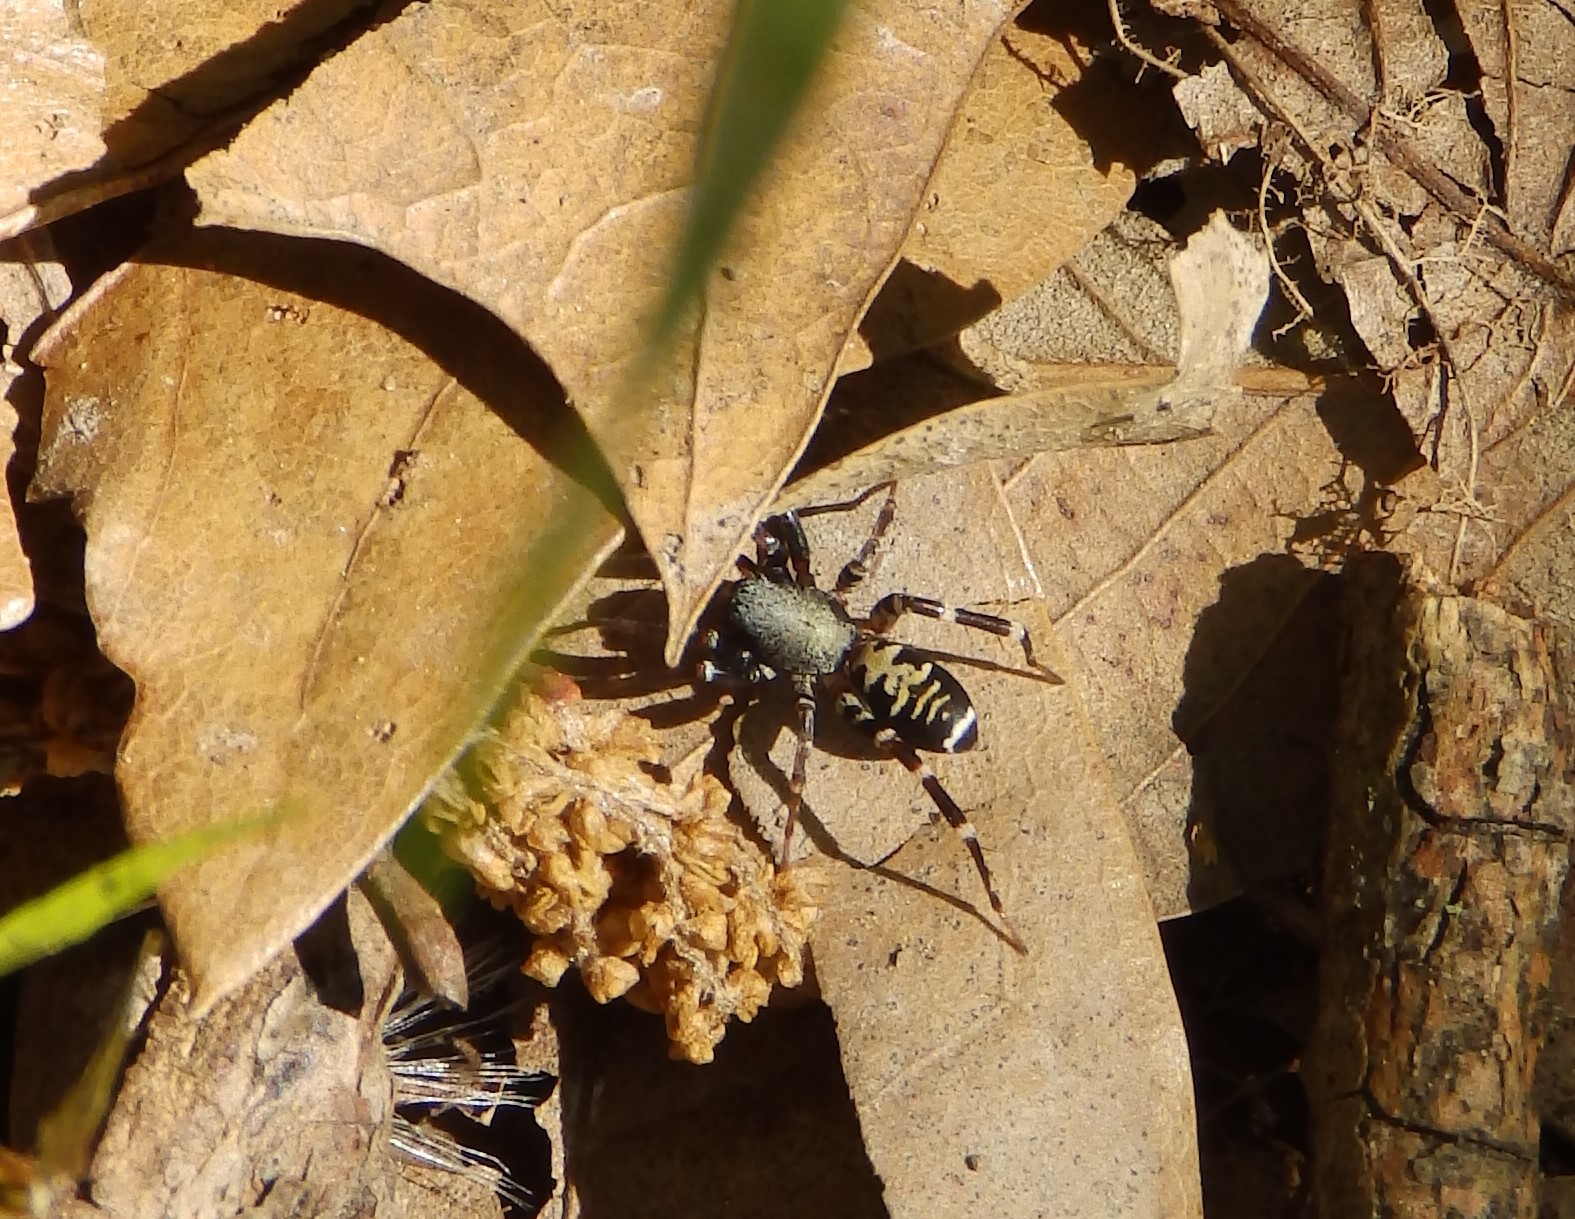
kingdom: Animalia
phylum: Arthropoda
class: Arachnida
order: Araneae
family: Corinnidae
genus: Castianeira
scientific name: Castianeira longipalpa
